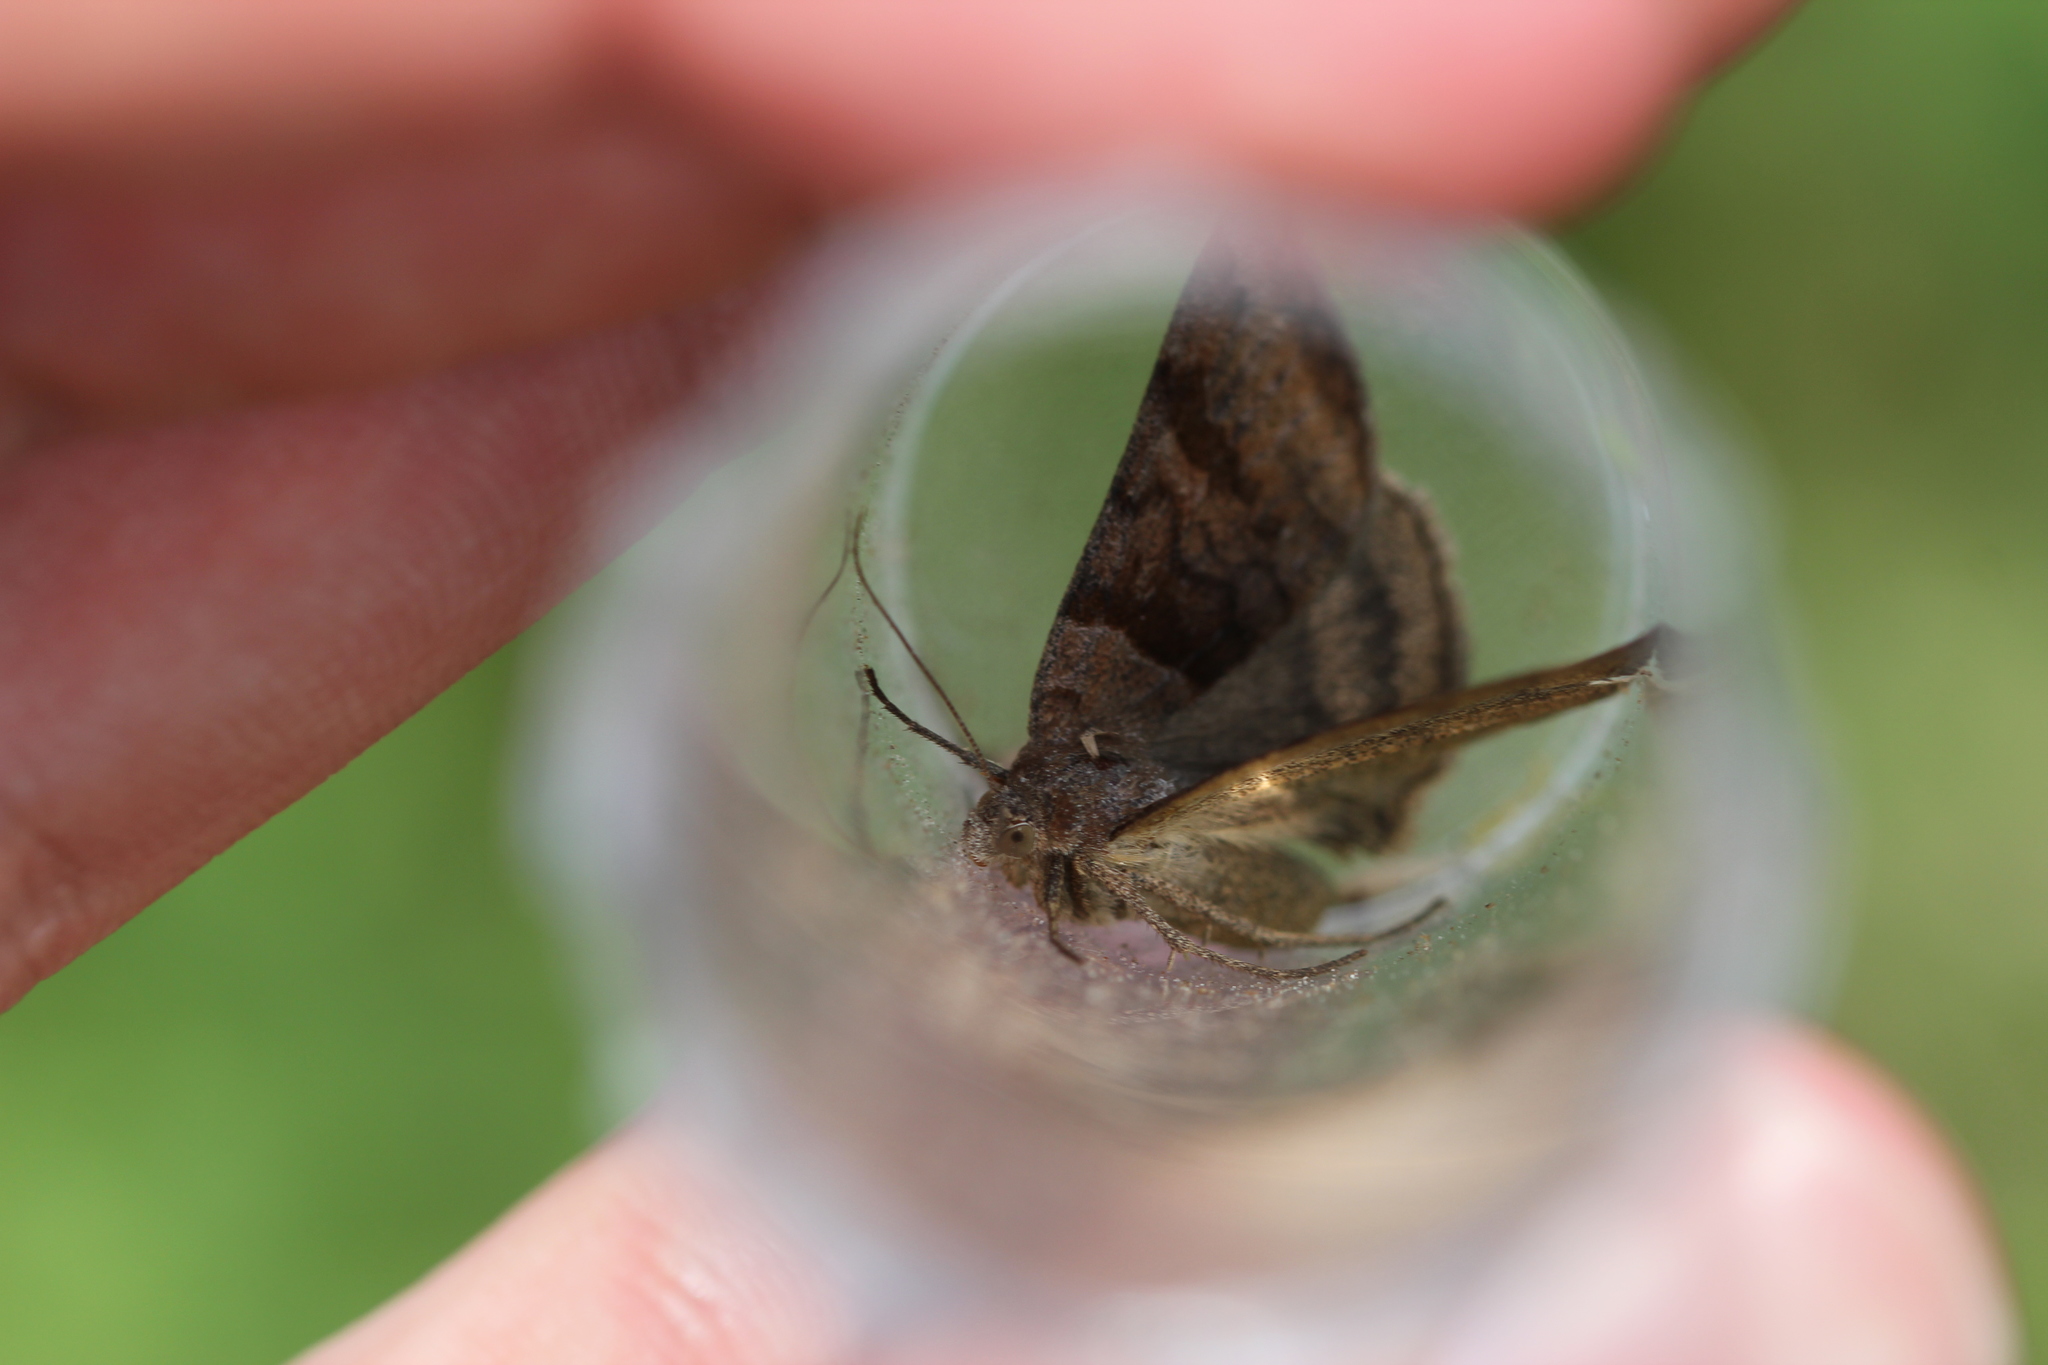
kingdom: Animalia
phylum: Arthropoda
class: Insecta
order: Lepidoptera
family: Erebidae
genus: Caenurgina
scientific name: Caenurgina erechtea
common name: Forage looper moth
